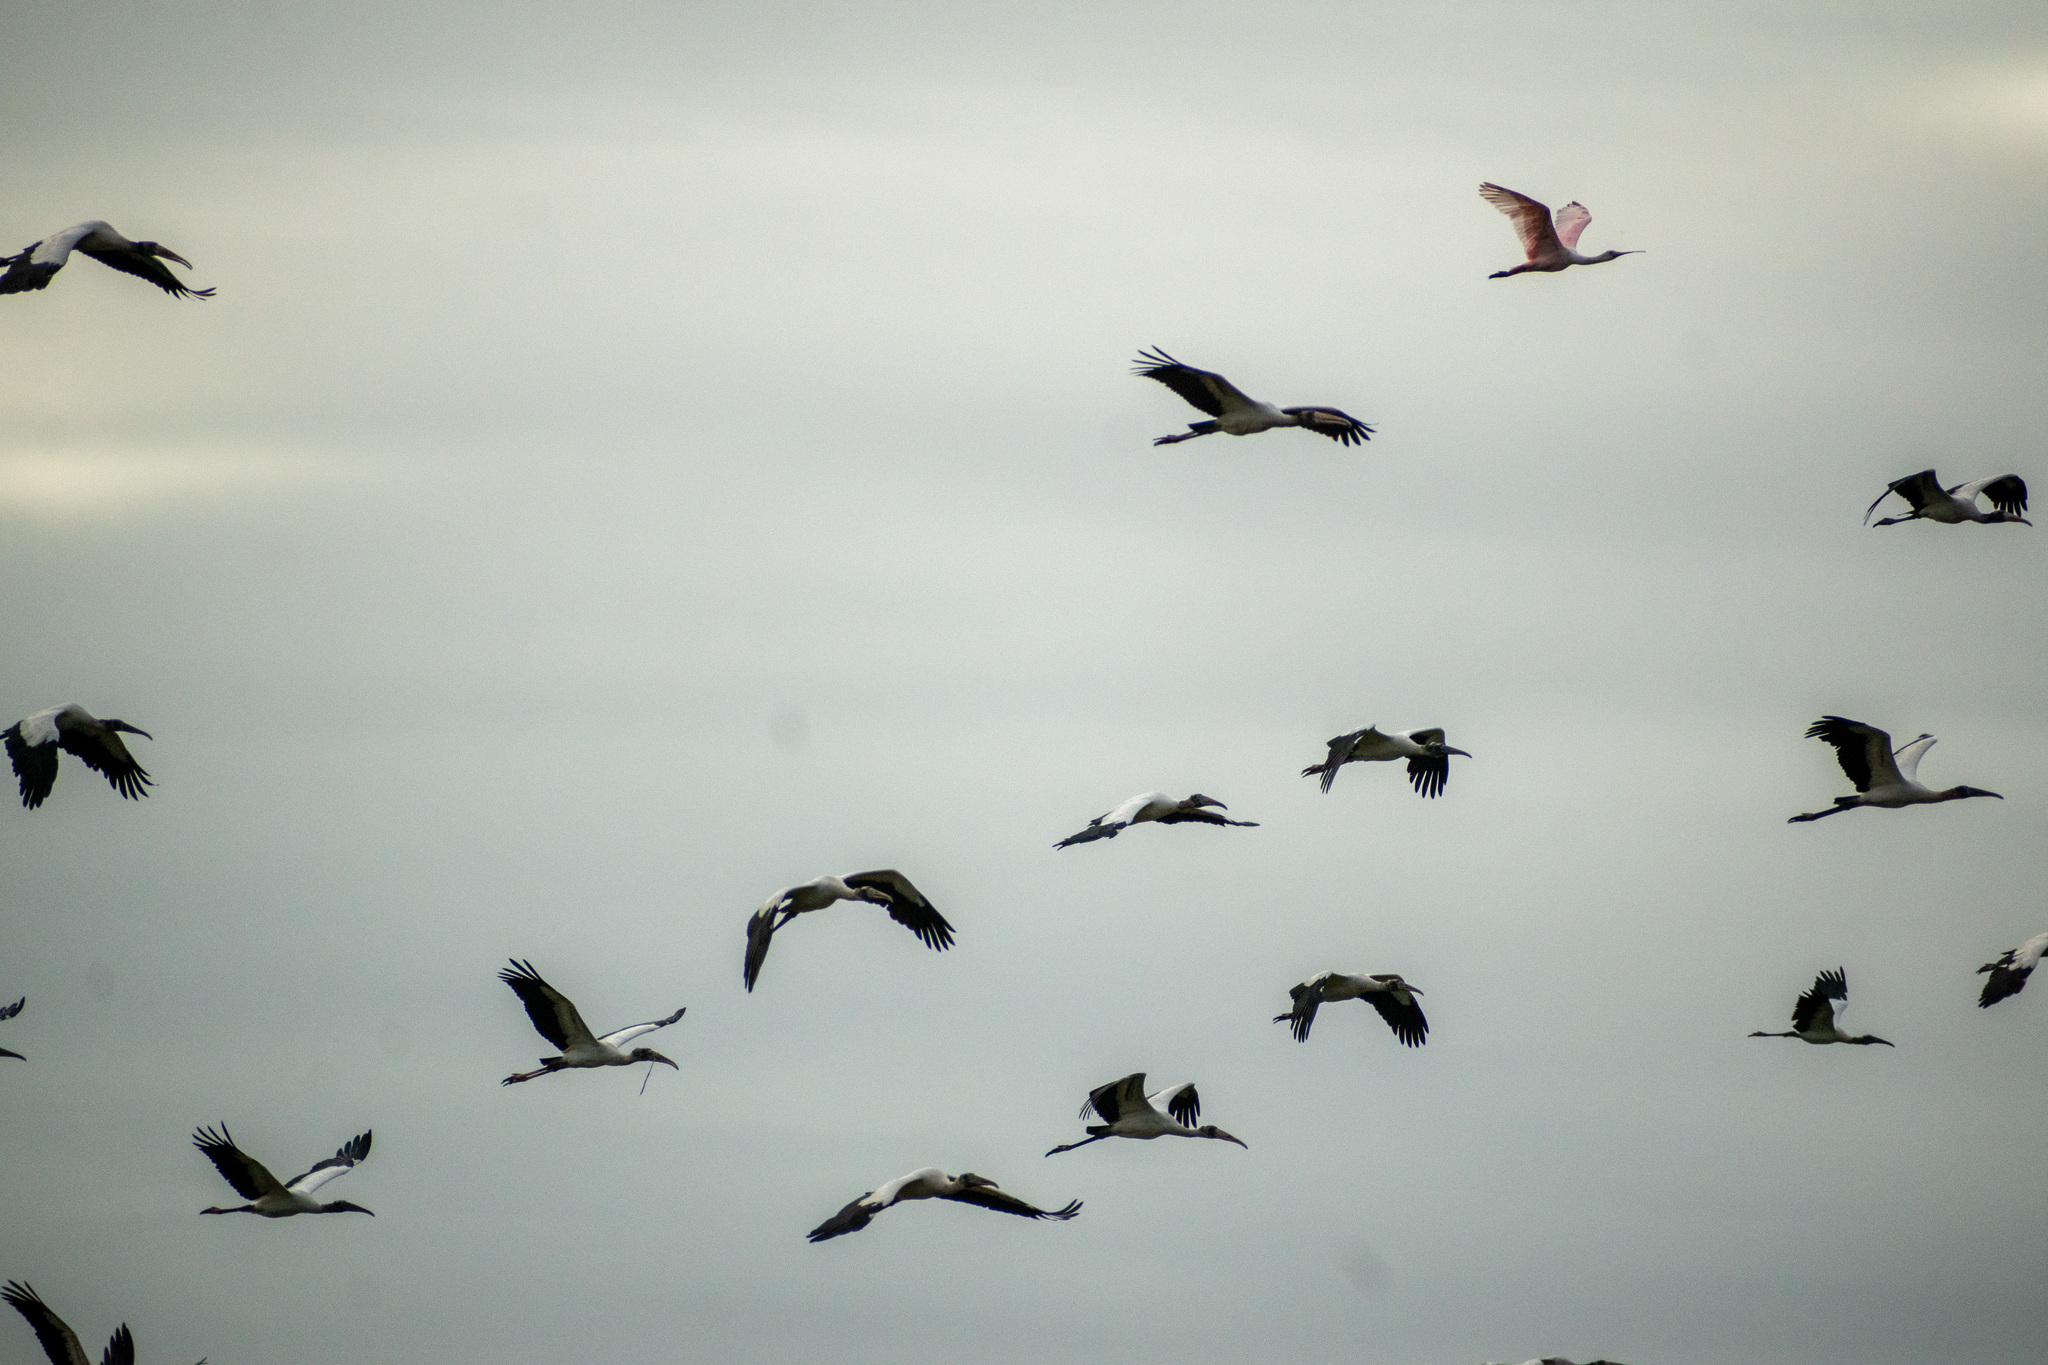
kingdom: Animalia
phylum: Chordata
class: Aves
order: Ciconiiformes
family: Ciconiidae
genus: Mycteria
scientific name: Mycteria americana
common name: Wood stork
